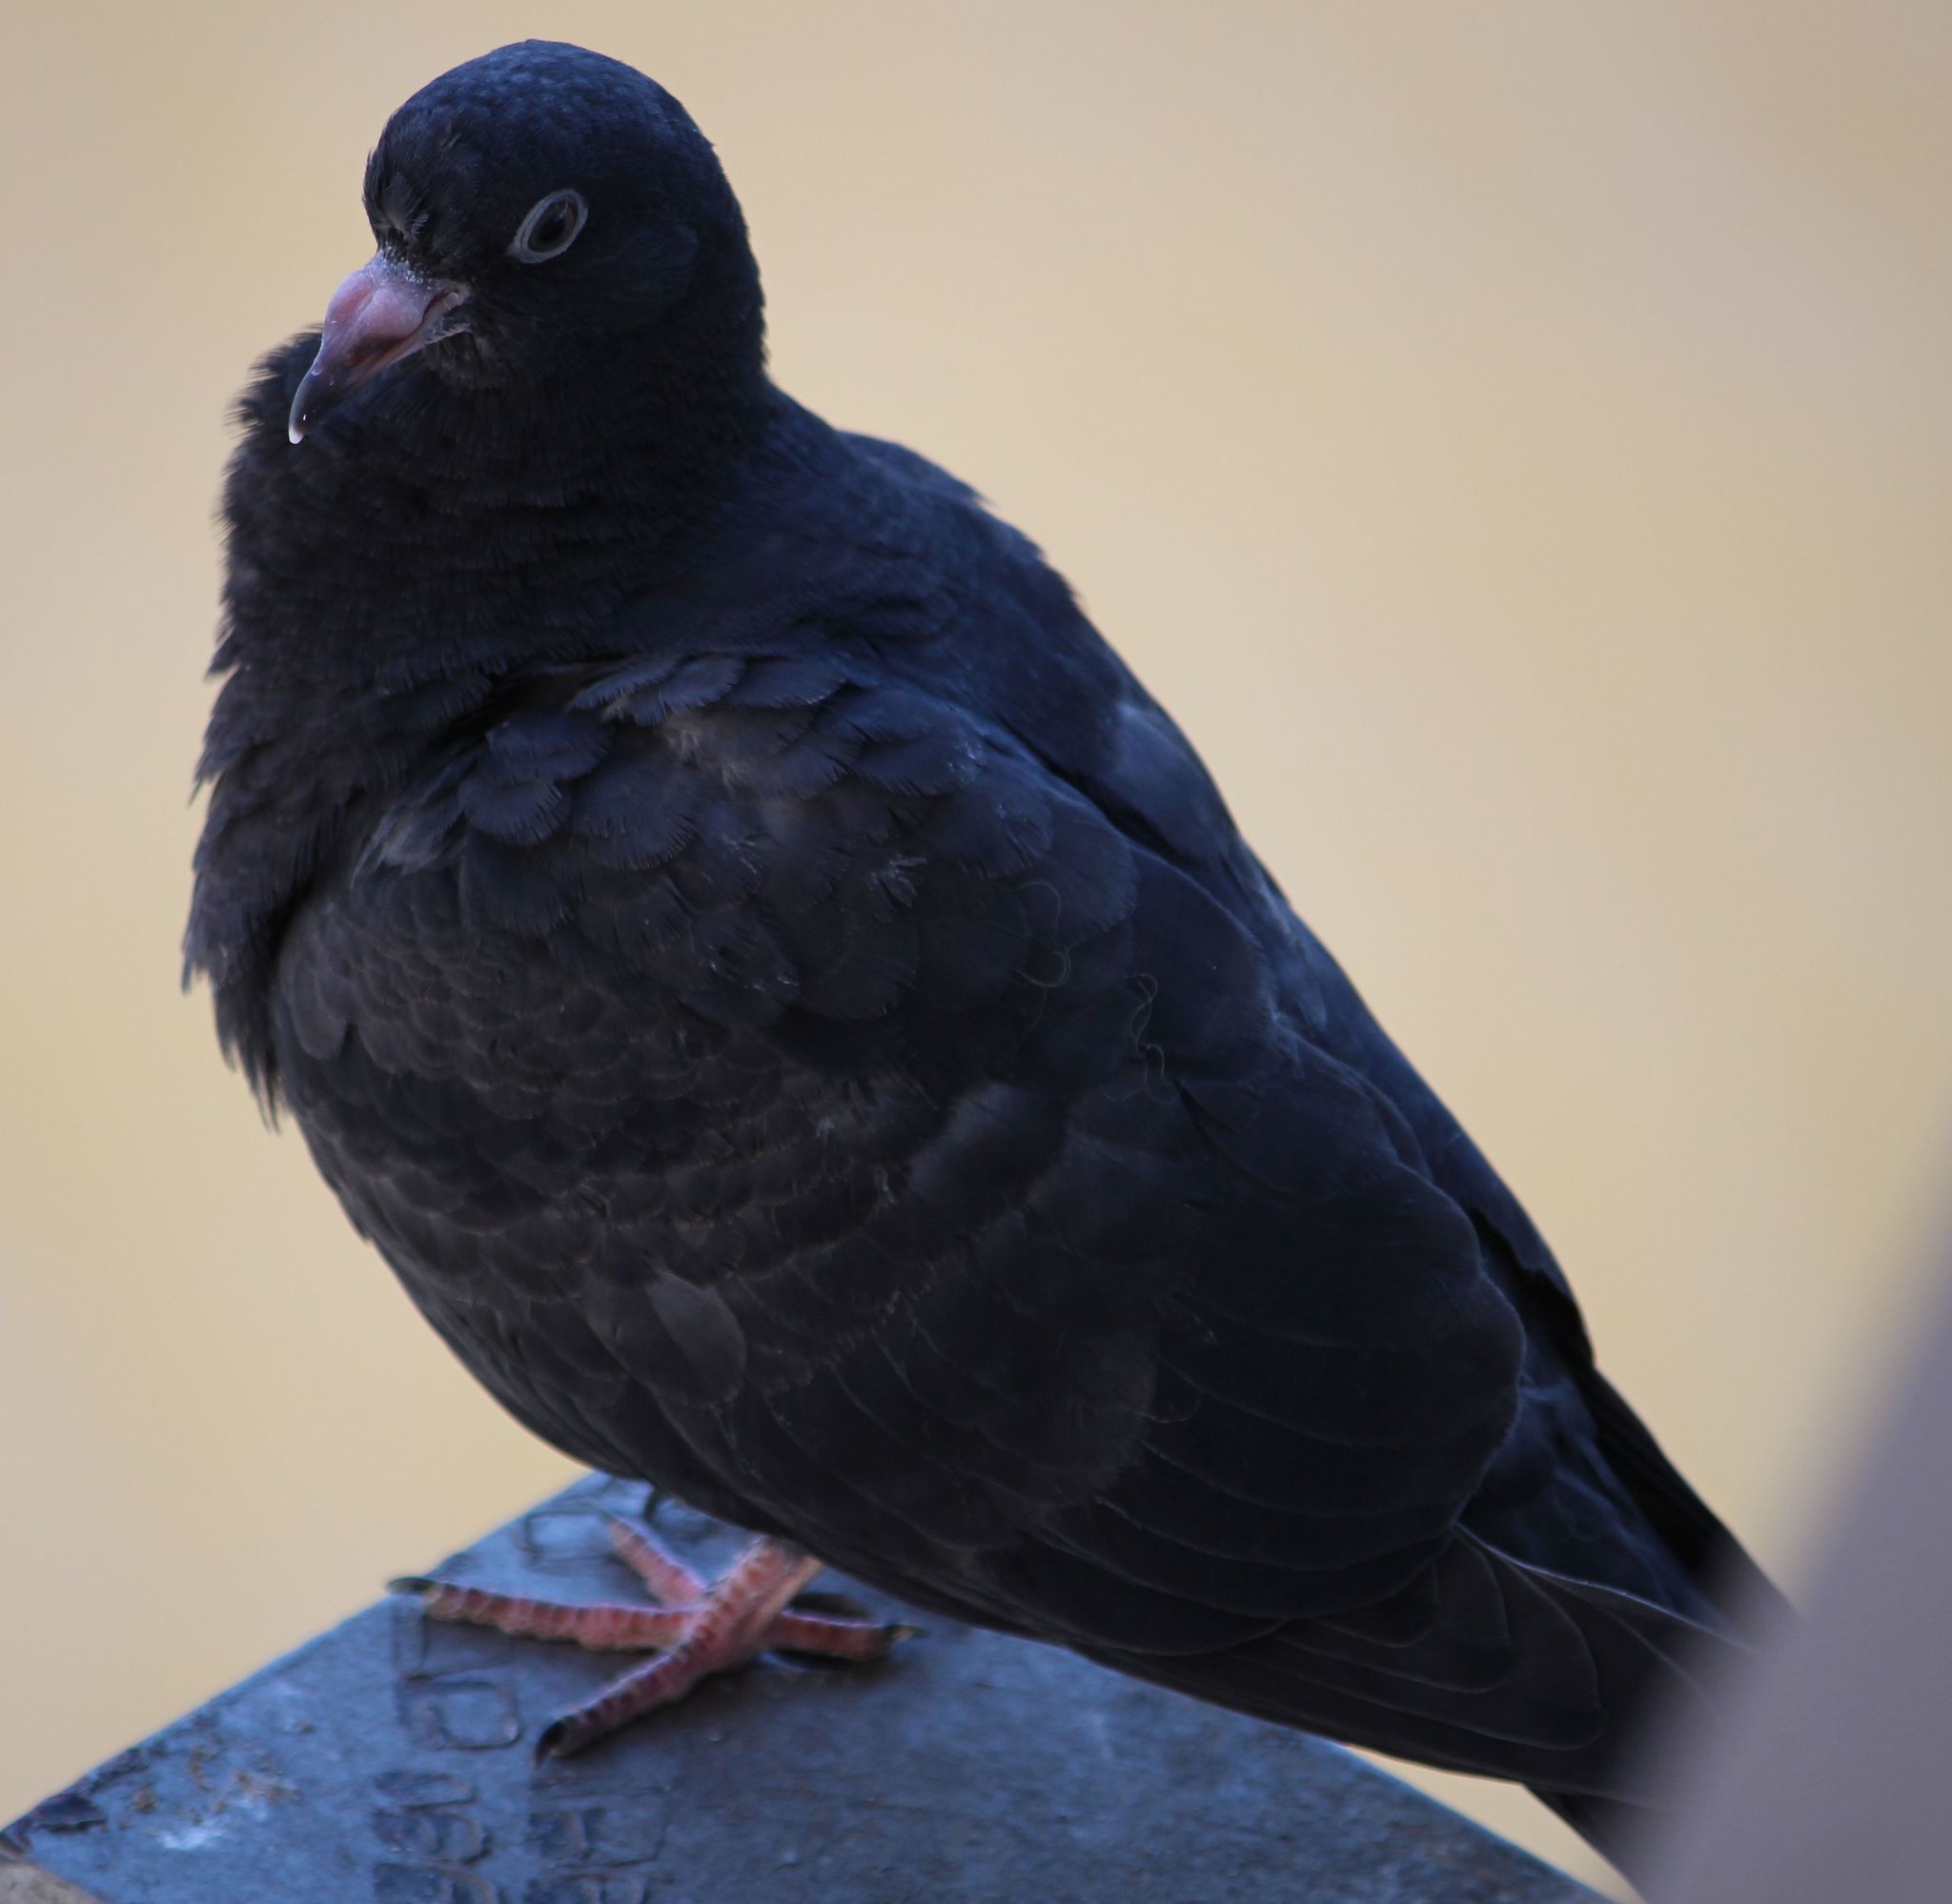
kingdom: Animalia
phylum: Chordata
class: Aves
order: Columbiformes
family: Columbidae
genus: Columba
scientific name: Columba livia
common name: Rock pigeon
